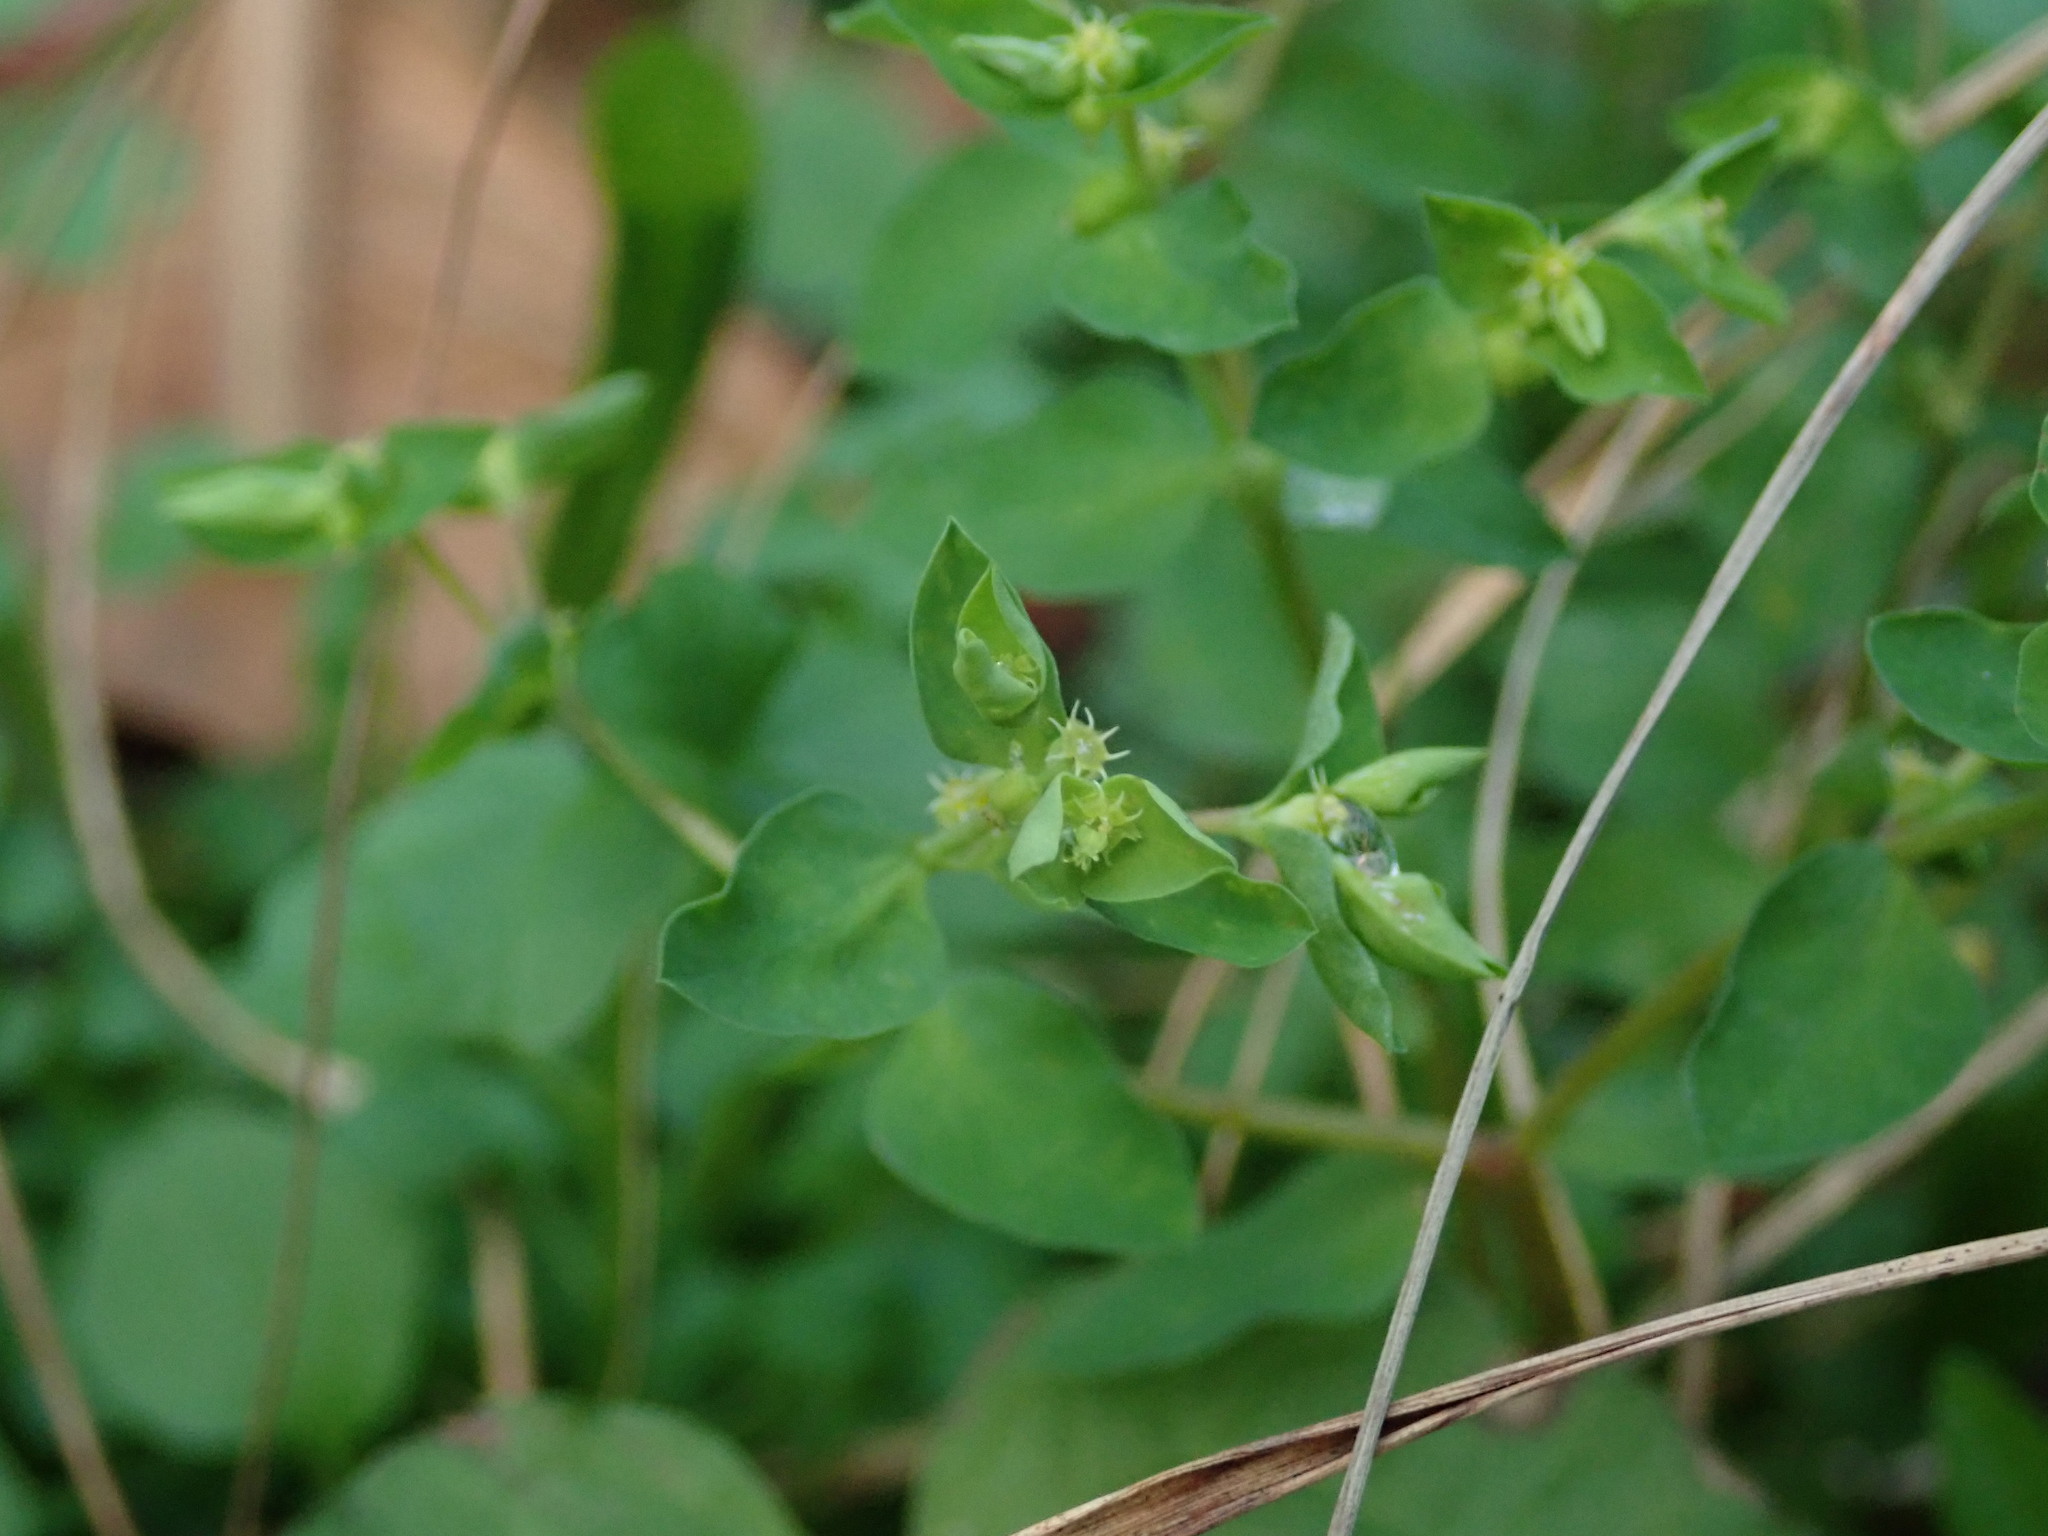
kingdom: Plantae
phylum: Tracheophyta
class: Magnoliopsida
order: Malpighiales
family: Euphorbiaceae
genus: Euphorbia
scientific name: Euphorbia peplus
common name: Petty spurge
